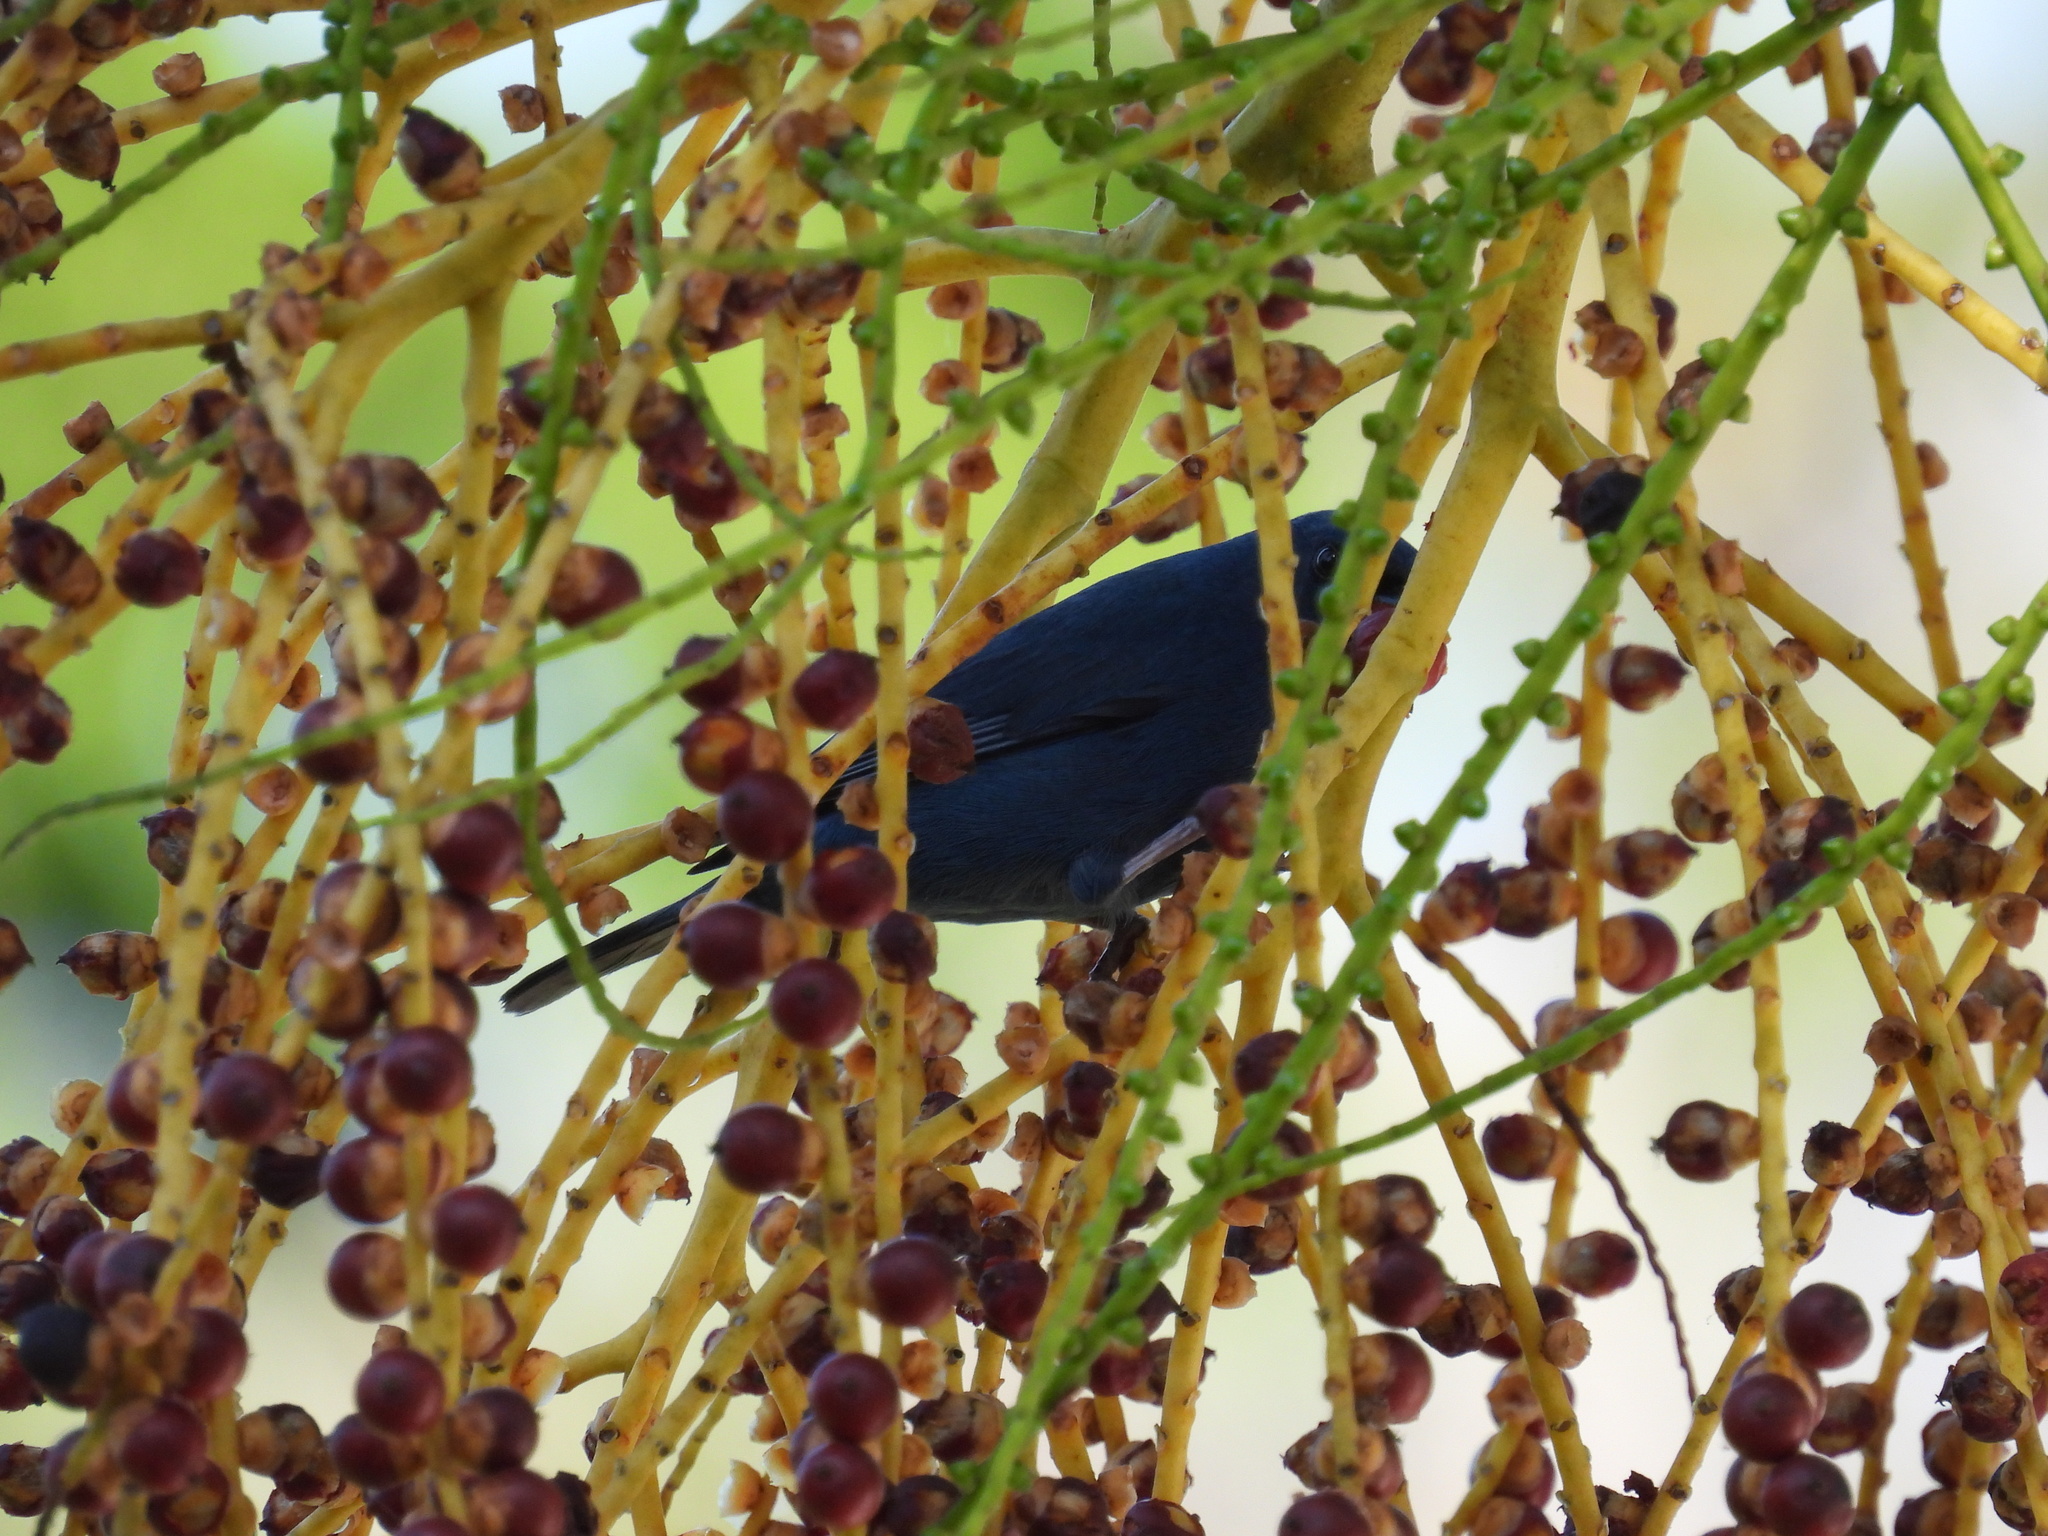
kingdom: Animalia
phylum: Chordata
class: Aves
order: Passeriformes
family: Thraupidae
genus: Euneornis
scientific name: Euneornis campestris
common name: Orangequit
